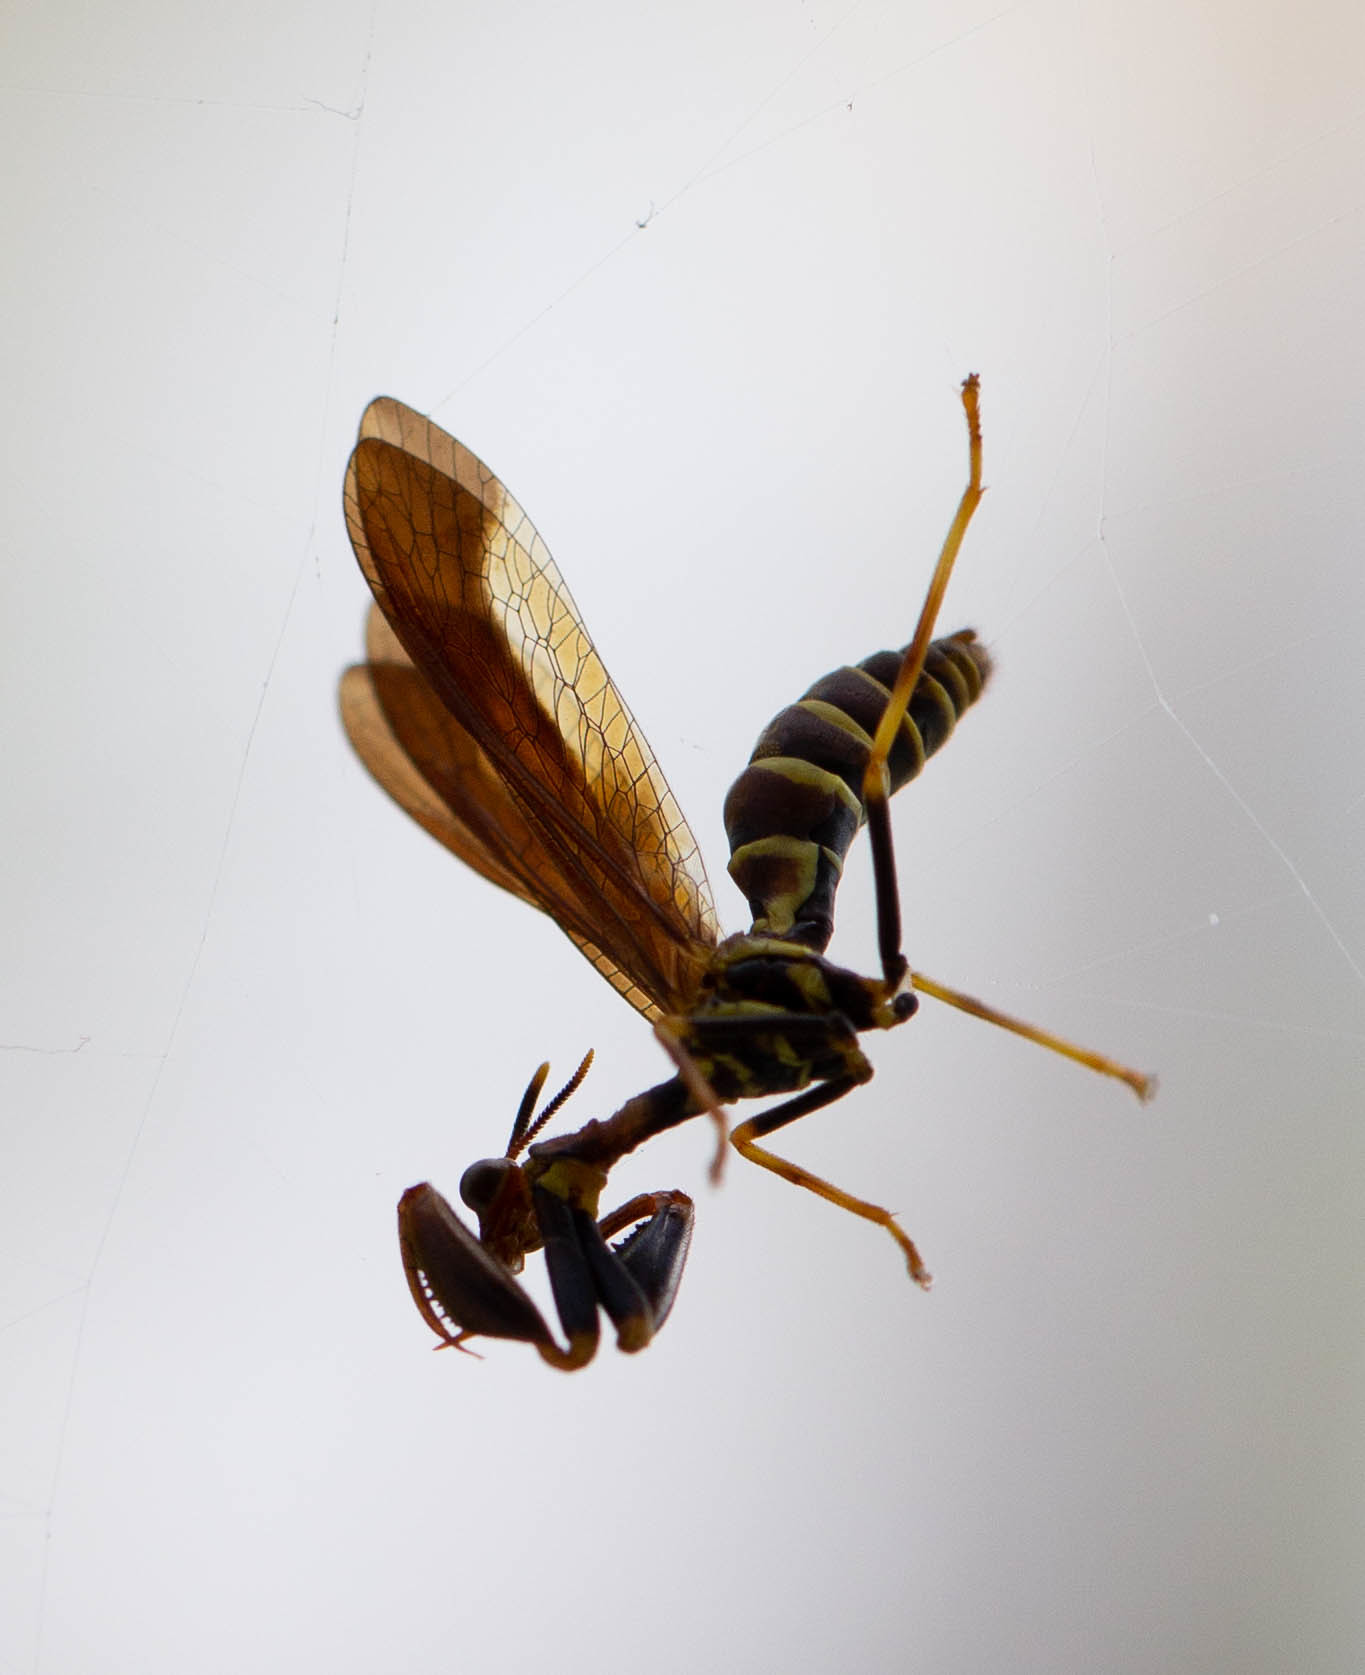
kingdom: Animalia
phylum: Arthropoda
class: Insecta
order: Neuroptera
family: Mantispidae
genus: Climaciella
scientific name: Climaciella brunnea
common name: Brown wasp mantidfly
